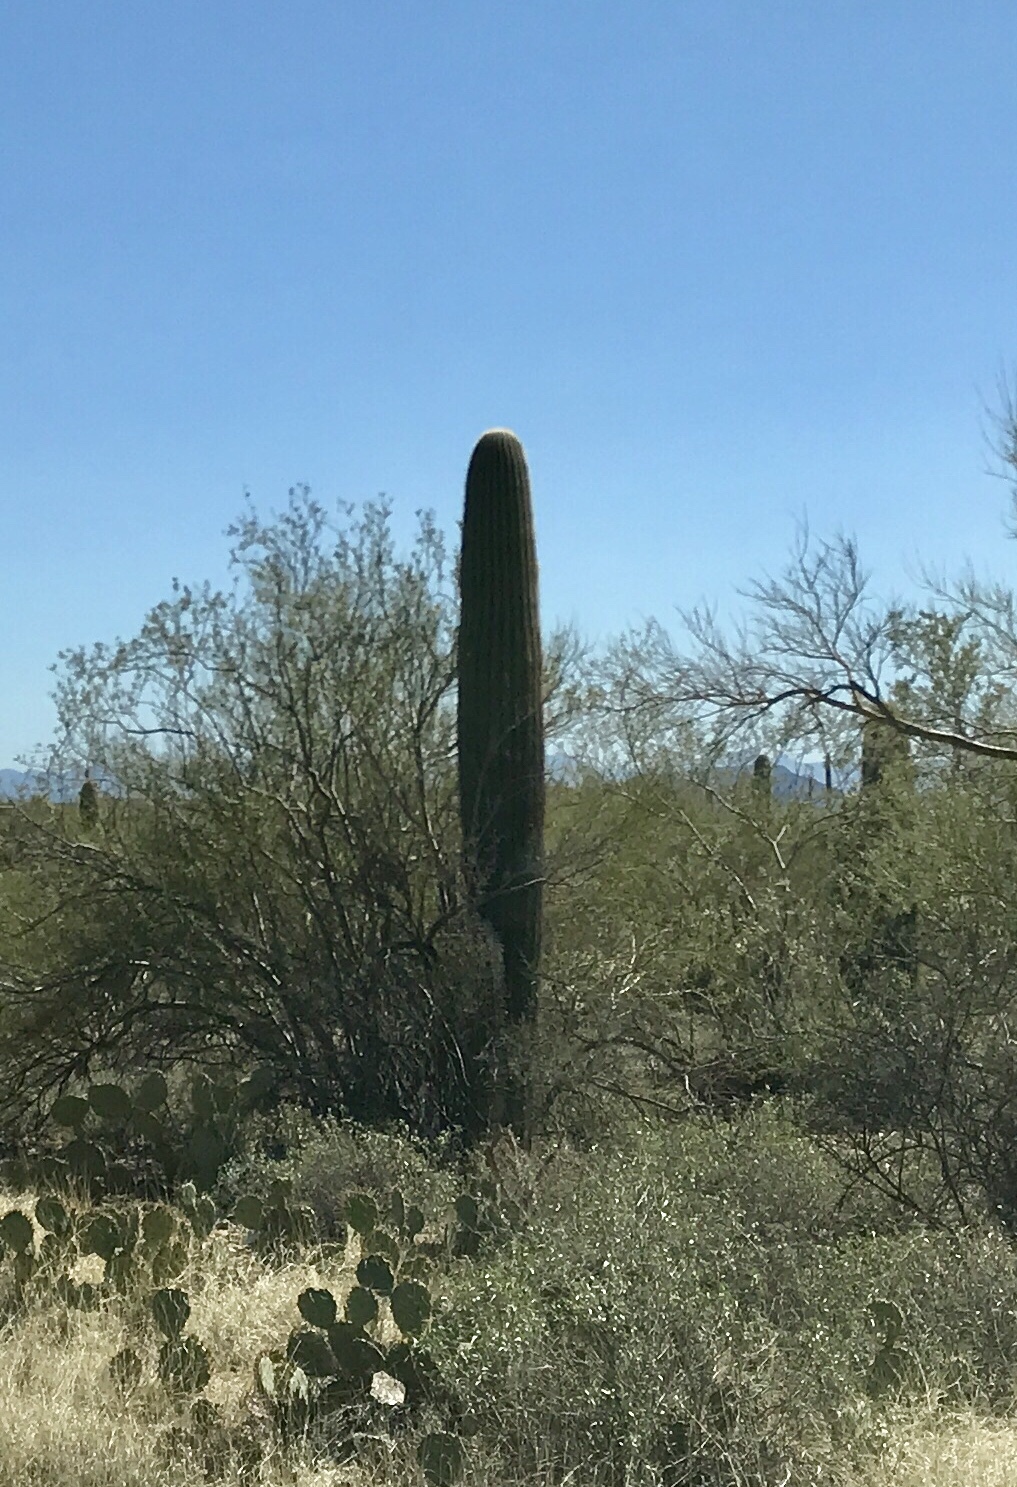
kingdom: Plantae
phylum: Tracheophyta
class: Magnoliopsida
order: Caryophyllales
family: Cactaceae
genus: Carnegiea
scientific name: Carnegiea gigantea
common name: Saguaro
